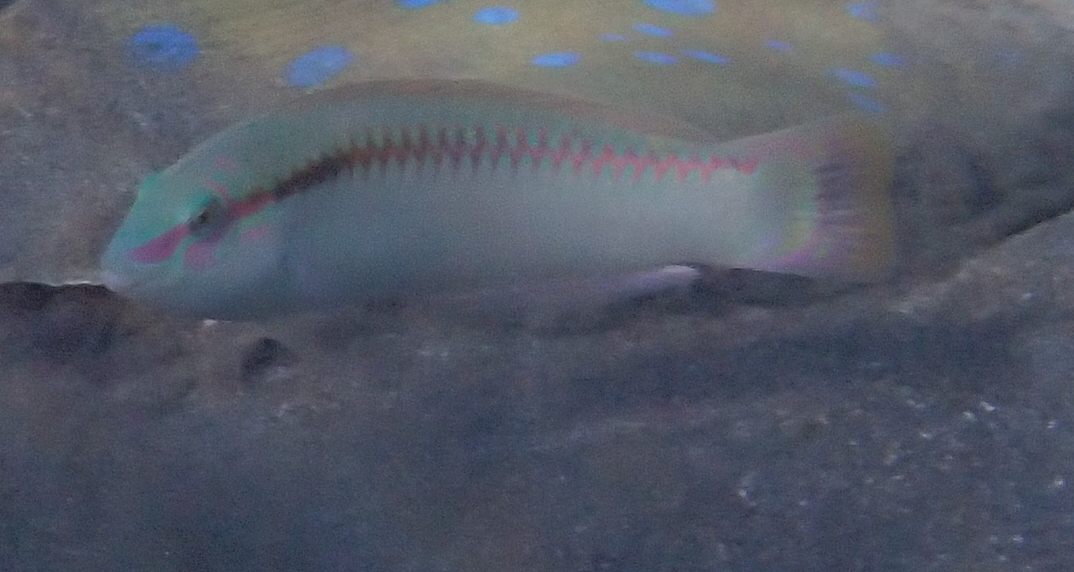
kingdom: Animalia
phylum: Chordata
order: Perciformes
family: Labridae
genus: Halichoeres
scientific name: Halichoeres scapularis
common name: Brownbanded wrasse
